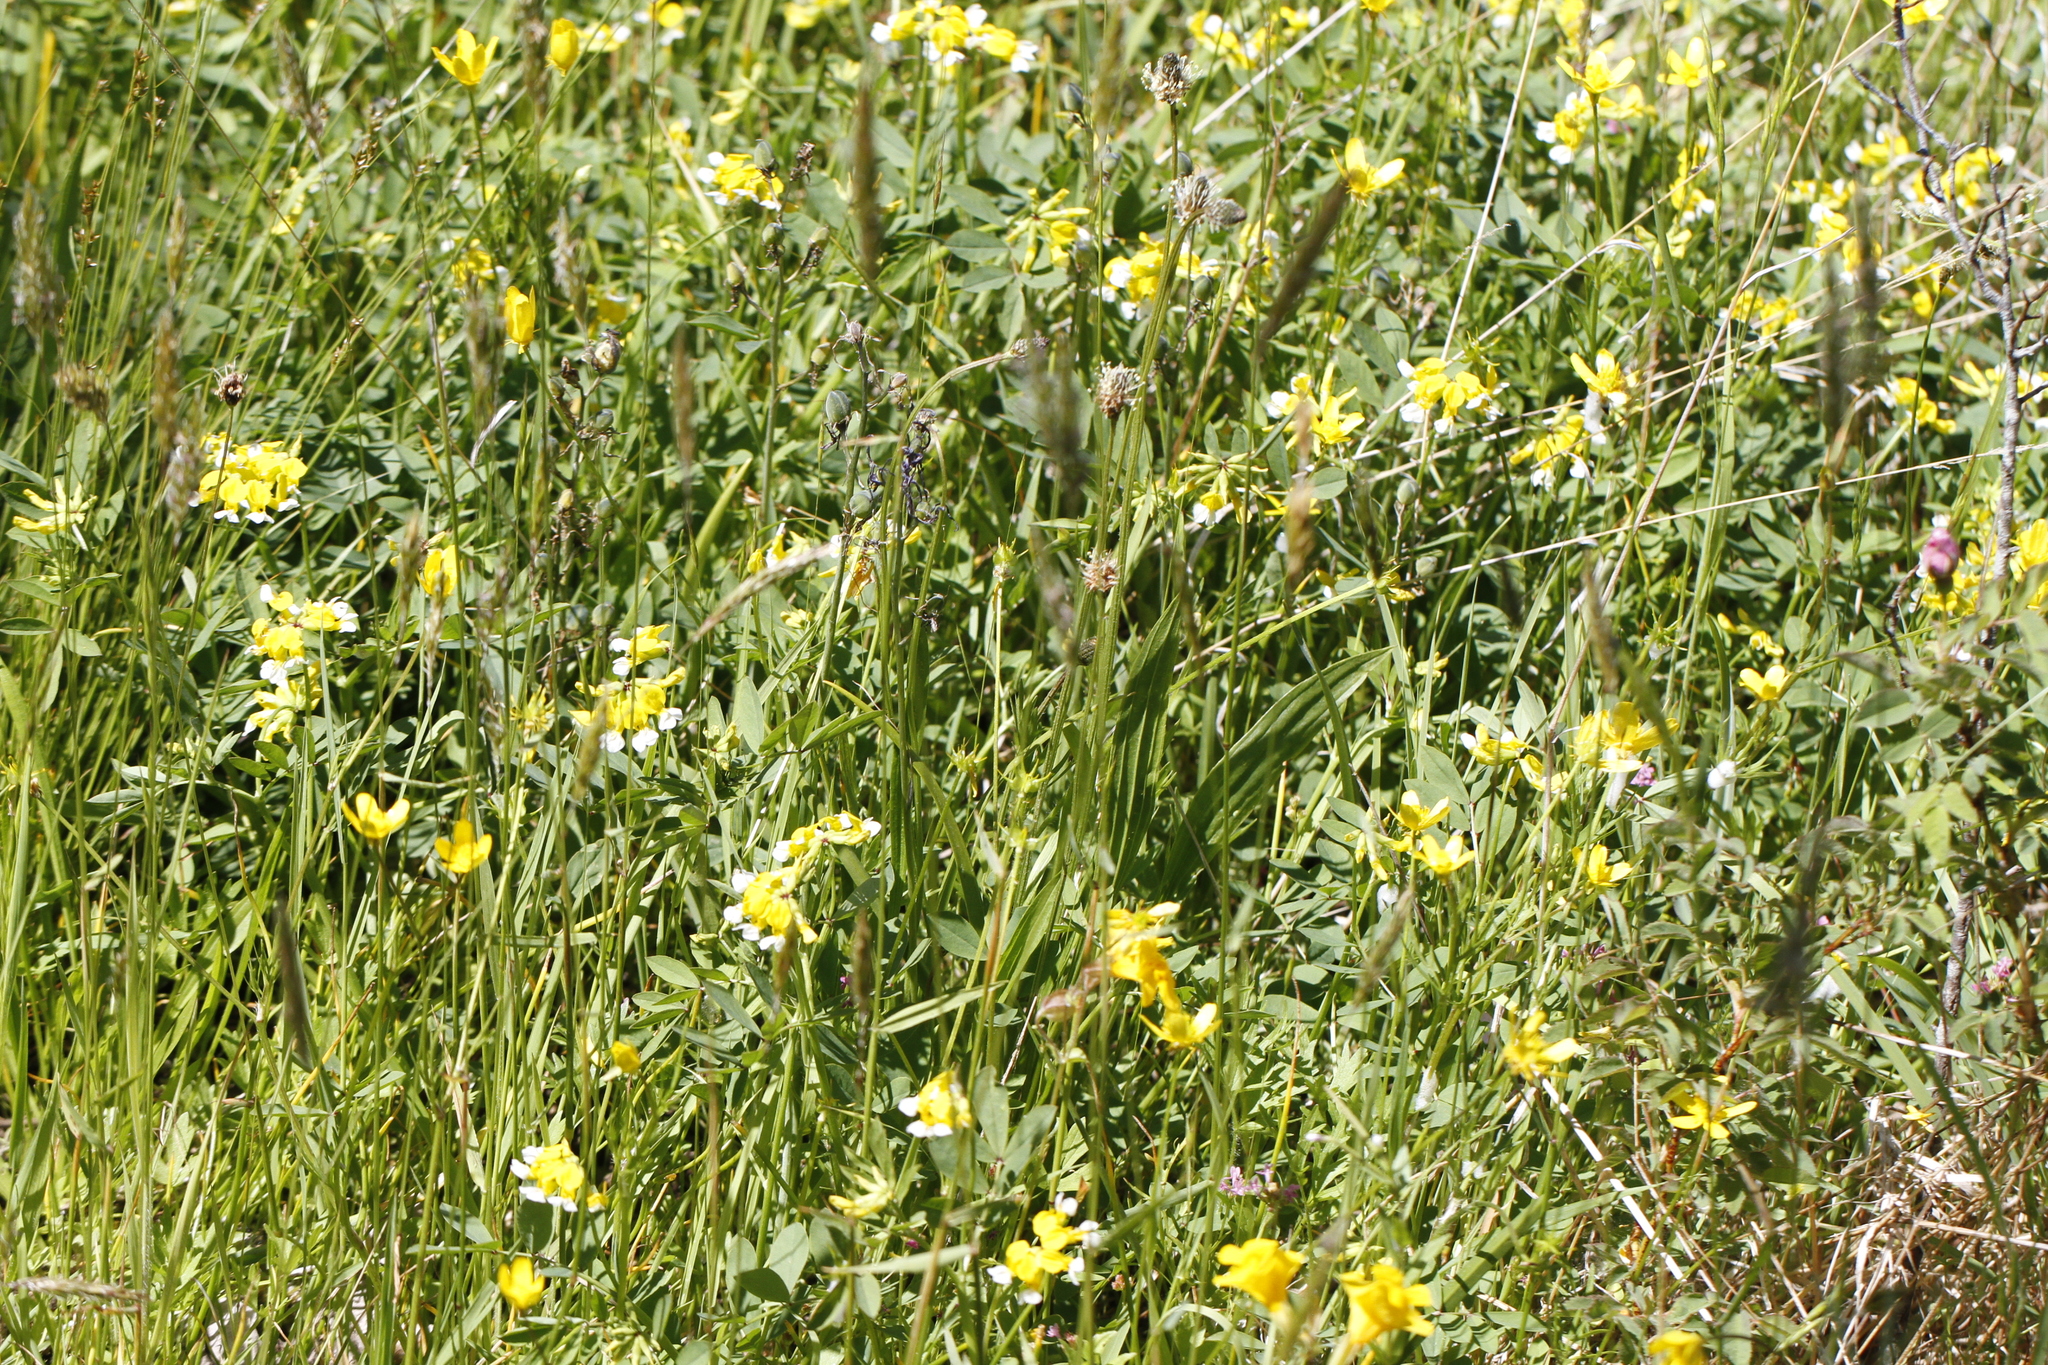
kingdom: Plantae
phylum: Tracheophyta
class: Magnoliopsida
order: Fabales
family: Fabaceae
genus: Hosackia
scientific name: Hosackia pinnata
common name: Bog bird's-foot trefoil
